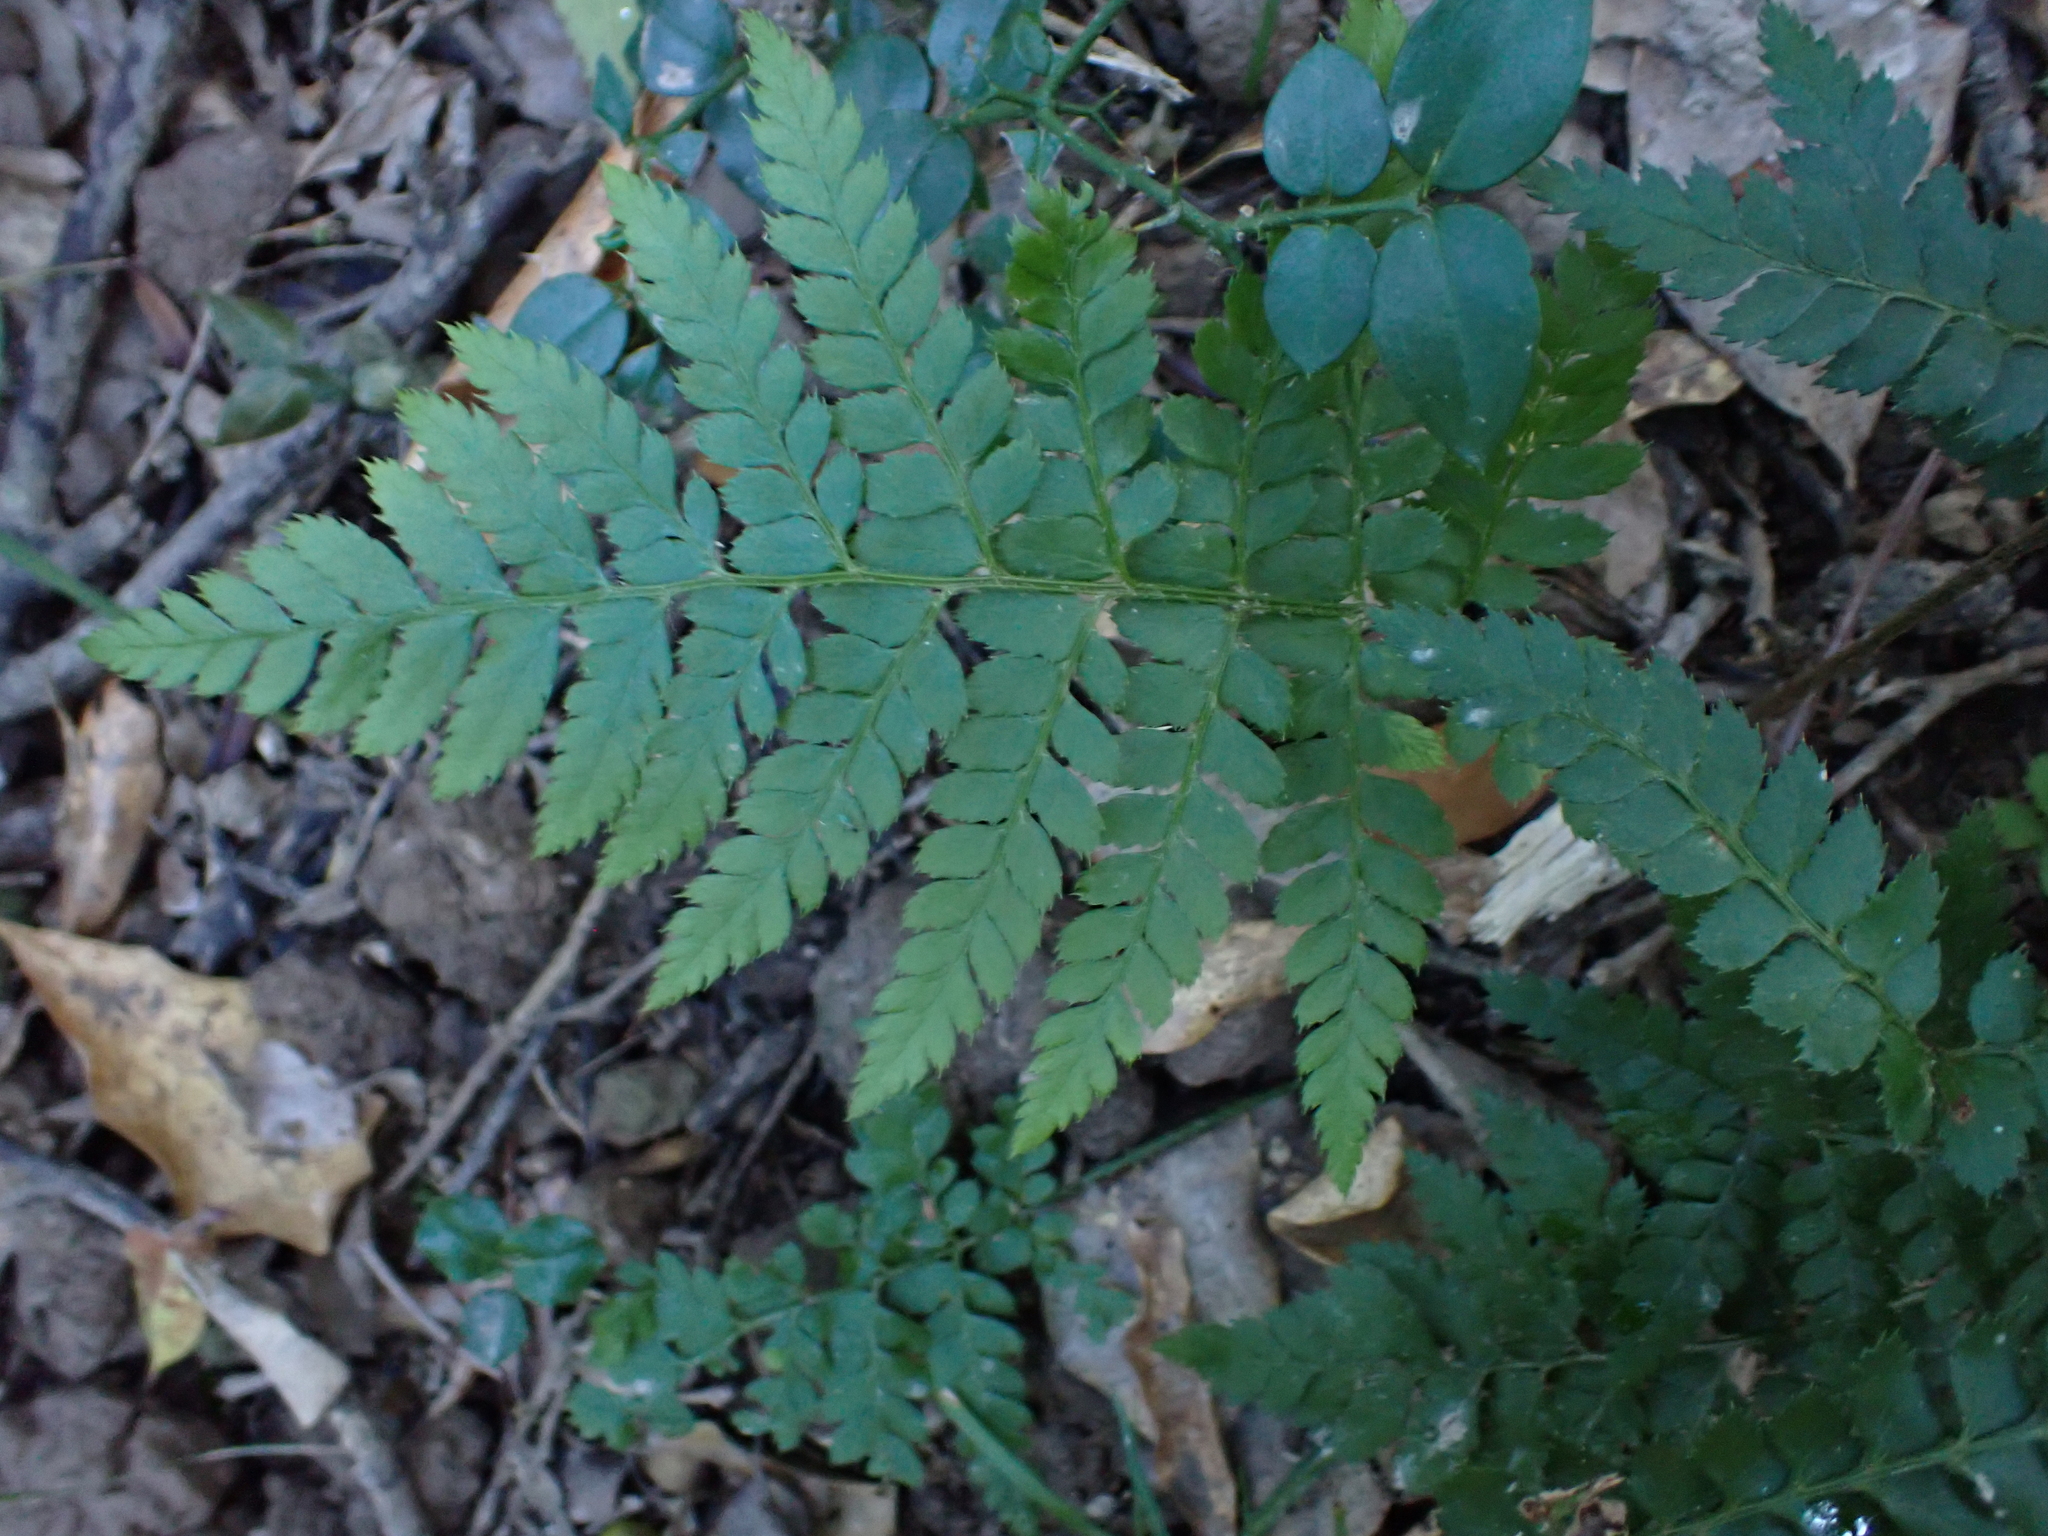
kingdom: Plantae
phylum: Tracheophyta
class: Polypodiopsida
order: Polypodiales
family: Dryopteridaceae
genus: Dryopteris
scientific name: Dryopteris inaequalis
